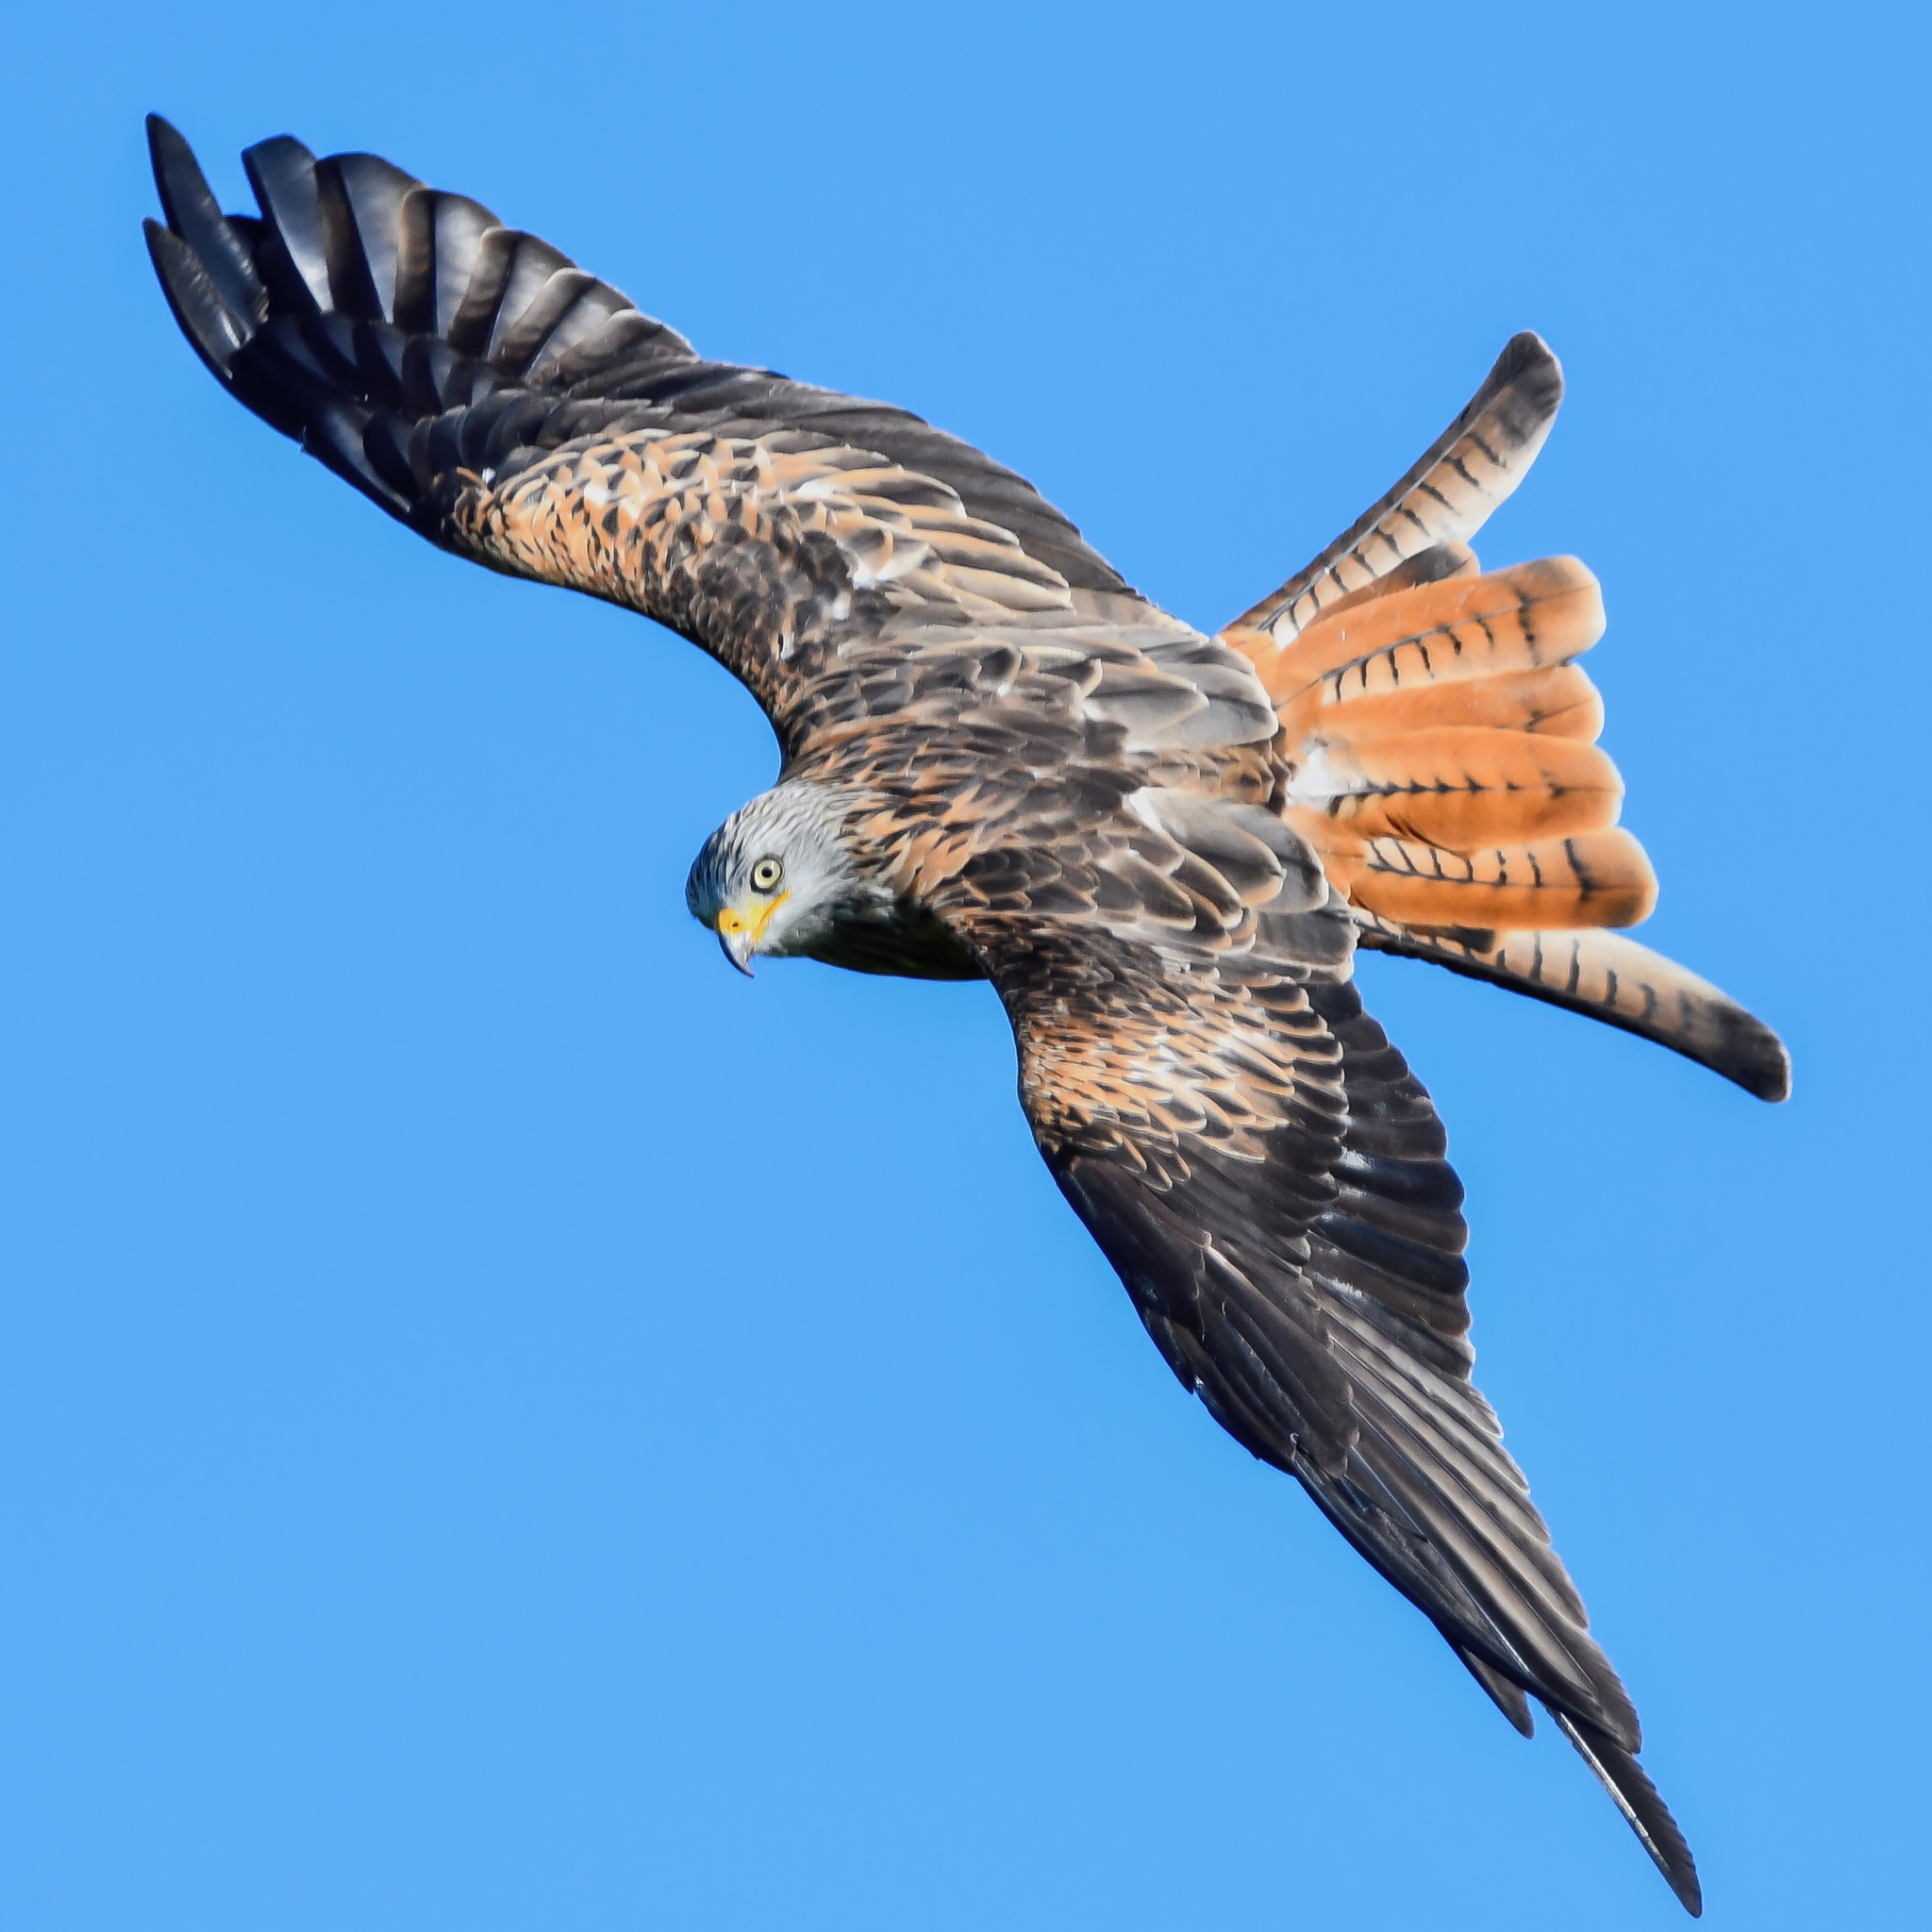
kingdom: Animalia
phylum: Chordata
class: Aves
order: Accipitriformes
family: Accipitridae
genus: Milvus
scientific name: Milvus milvus
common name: Red kite
